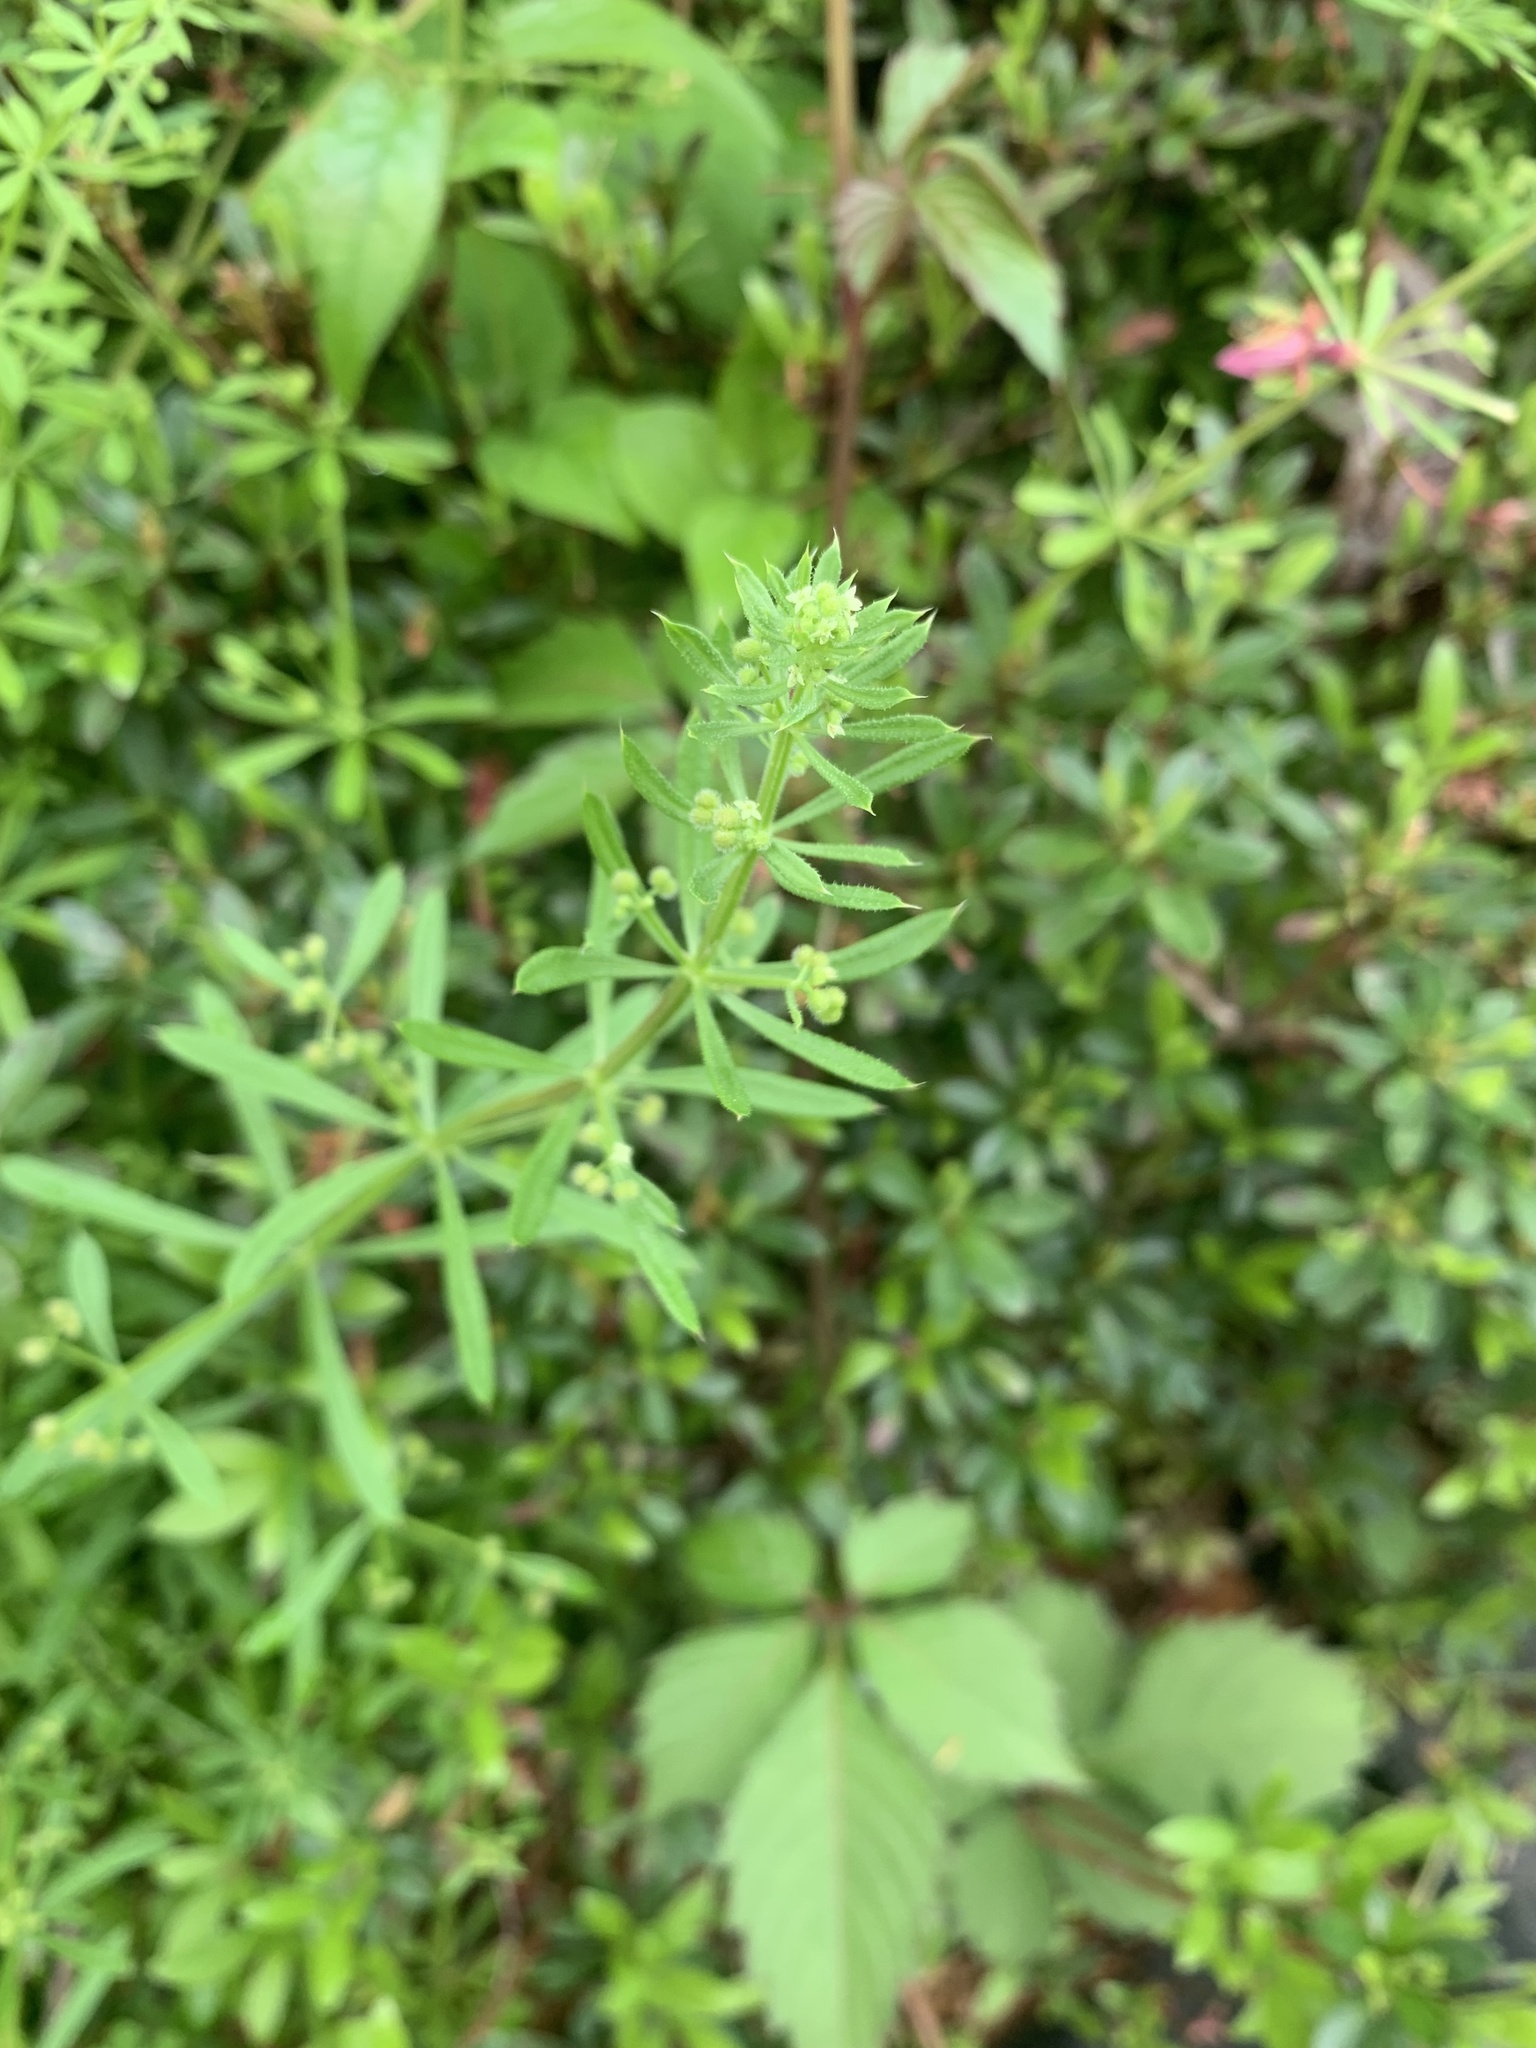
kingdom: Plantae
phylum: Tracheophyta
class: Magnoliopsida
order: Gentianales
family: Rubiaceae
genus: Galium
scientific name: Galium
